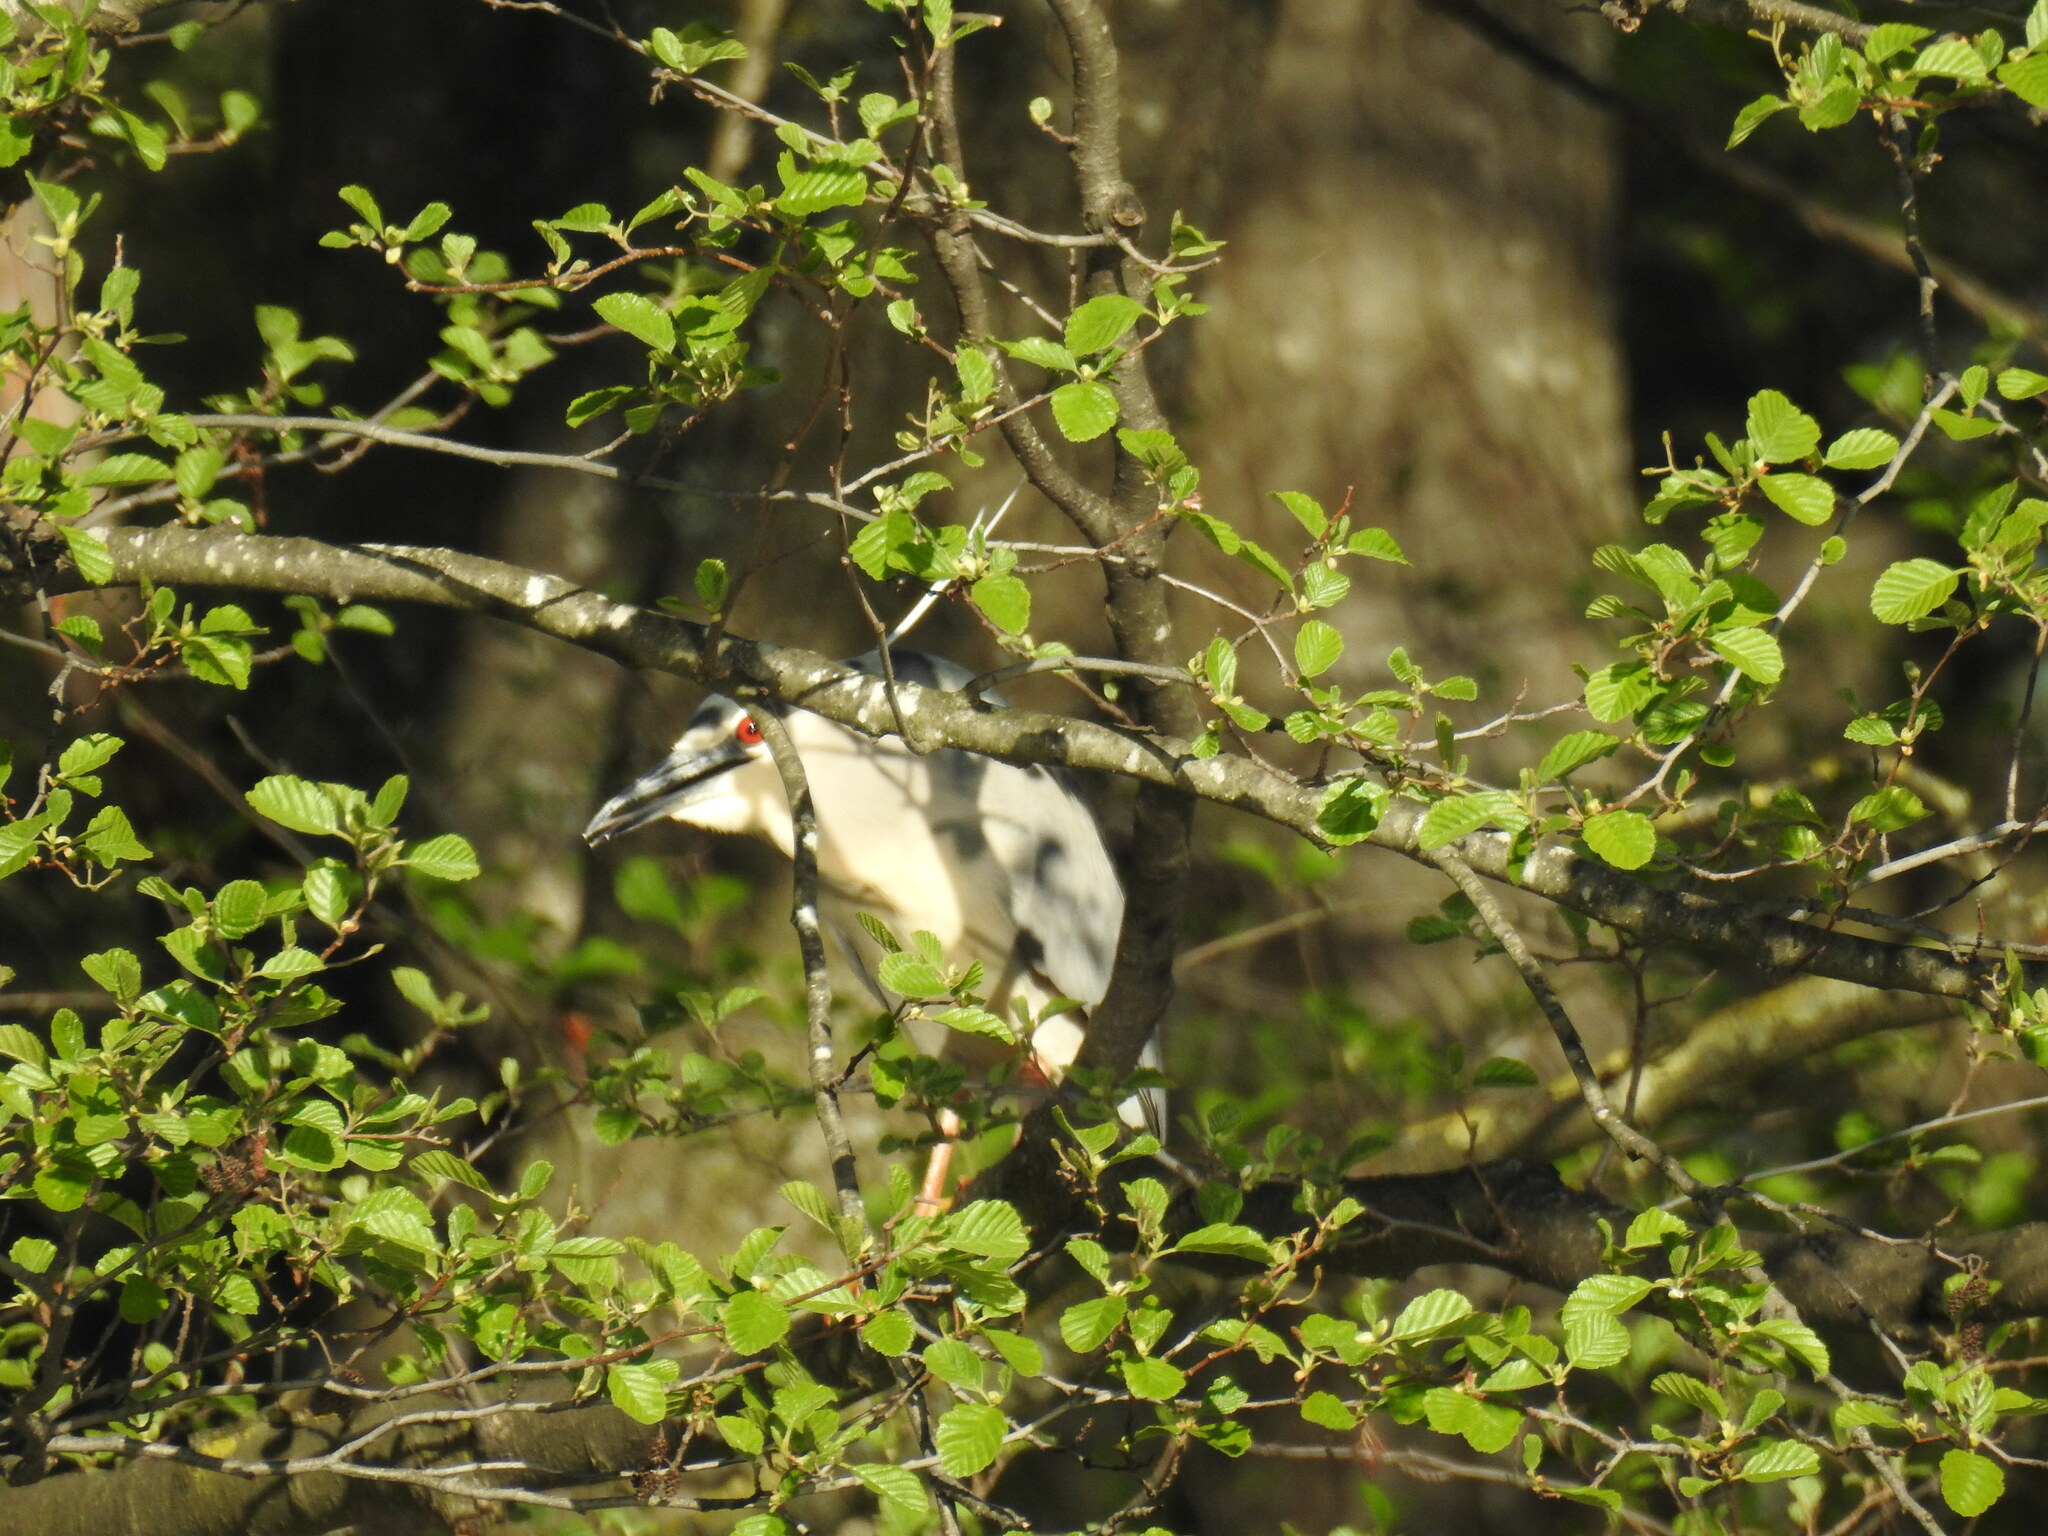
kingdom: Animalia
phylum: Chordata
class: Aves
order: Pelecaniformes
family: Ardeidae
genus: Nycticorax
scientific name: Nycticorax nycticorax
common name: Black-crowned night heron
